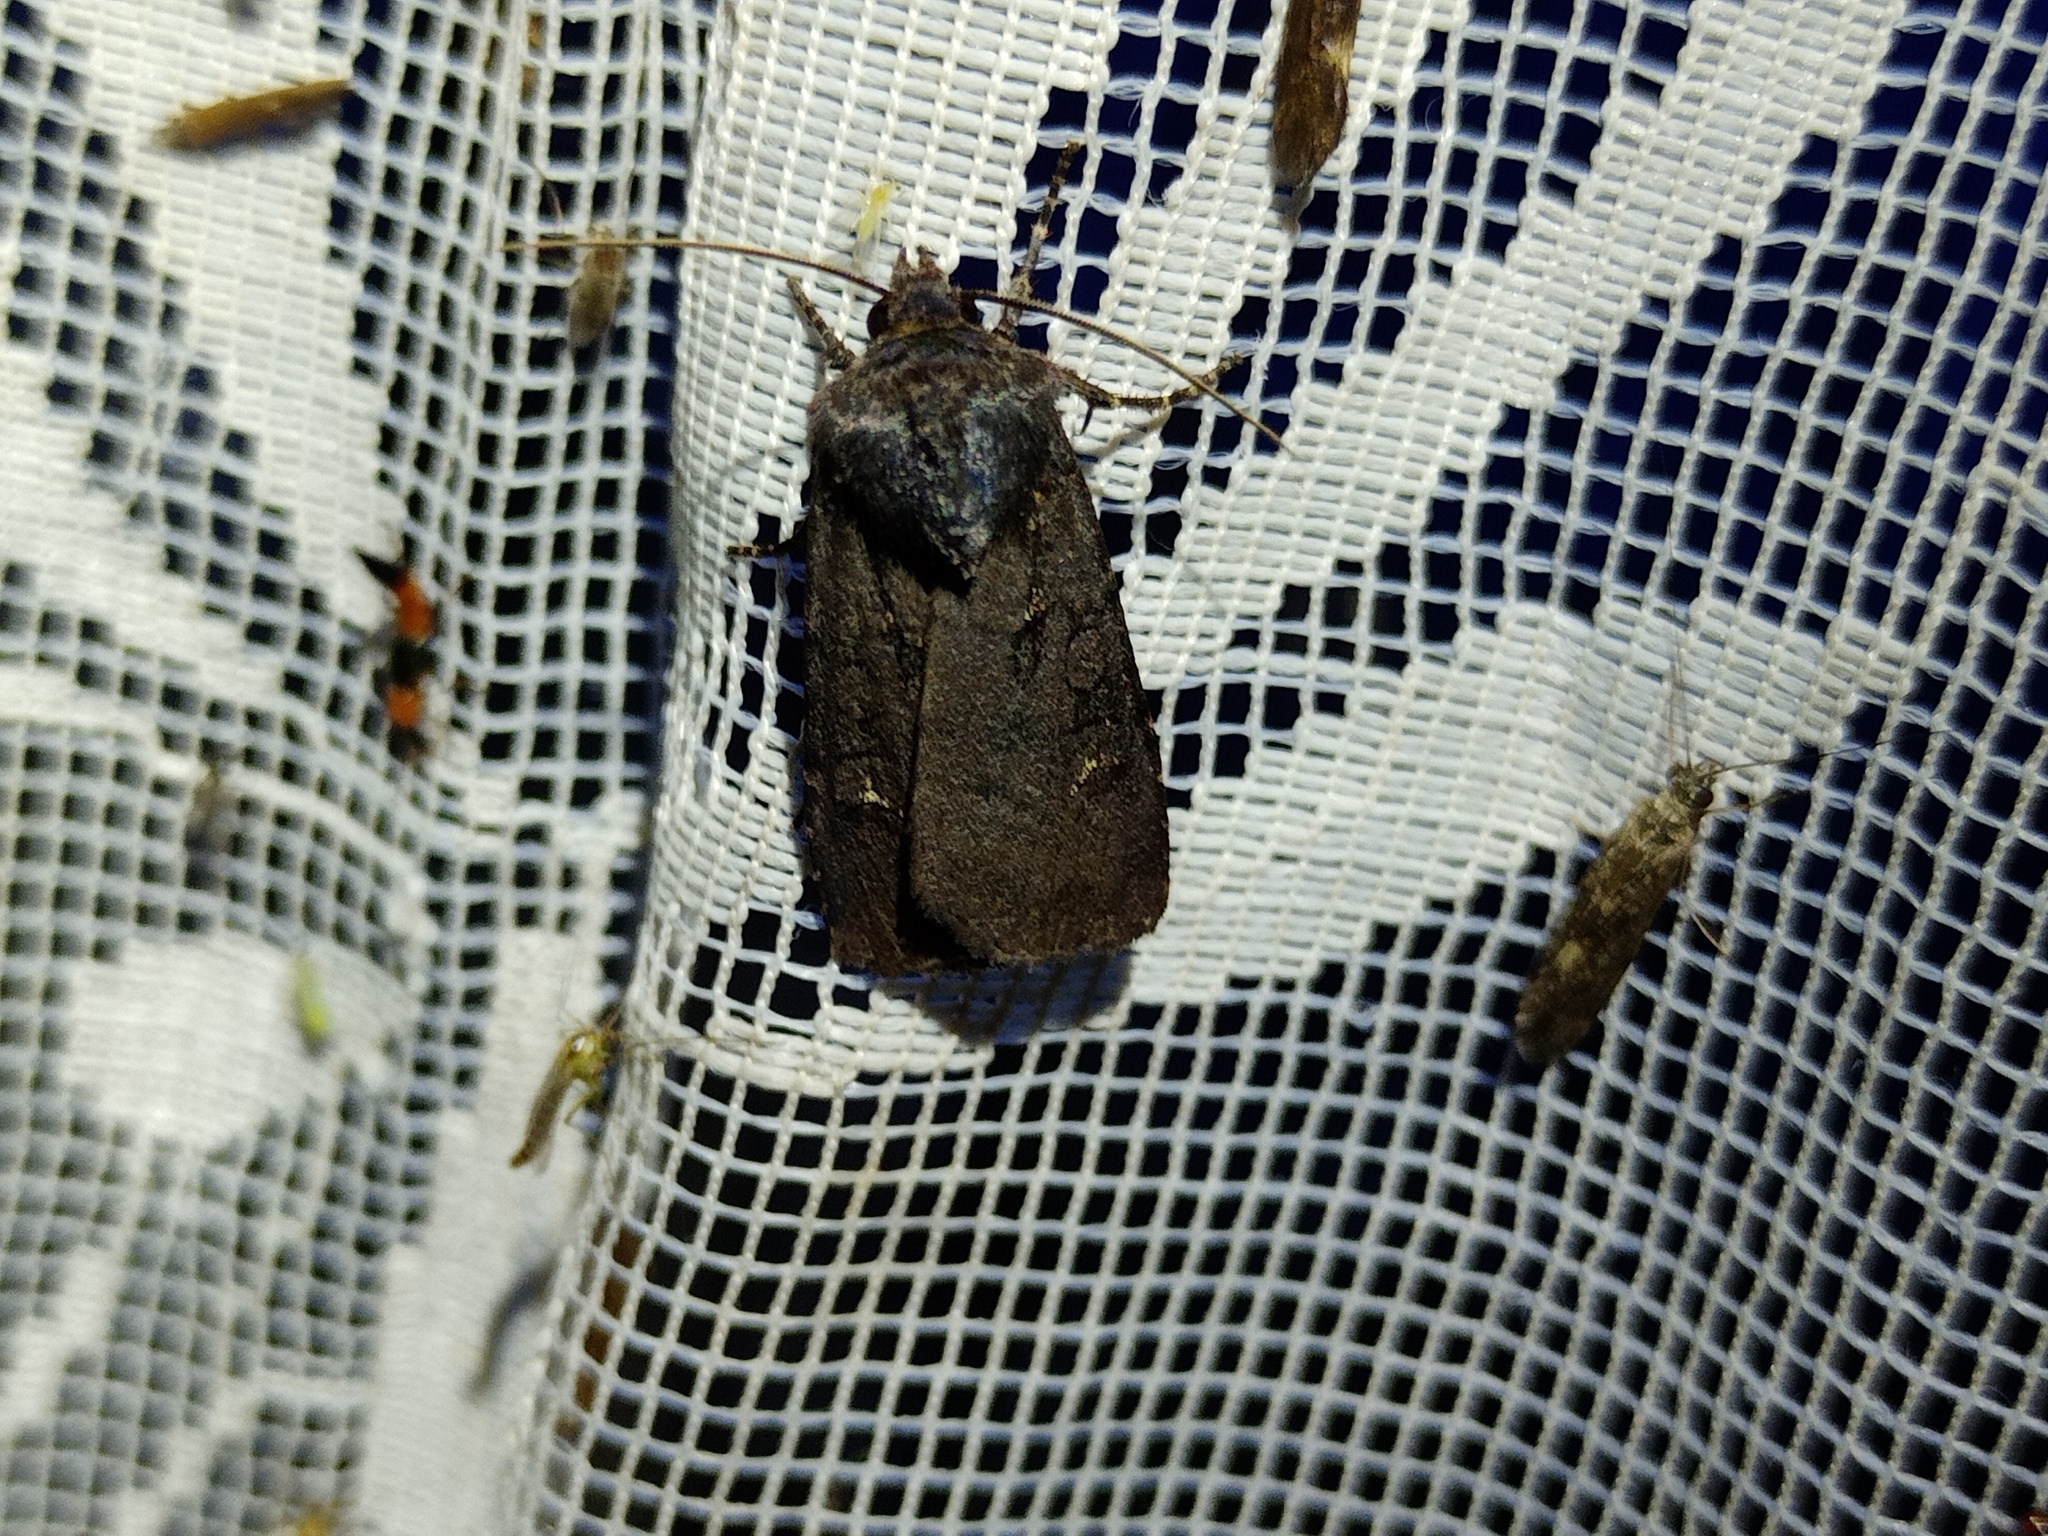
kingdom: Animalia
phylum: Arthropoda
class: Insecta
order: Lepidoptera
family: Noctuidae
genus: Euxoa
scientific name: Euxoa nigricans
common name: Garden dart
